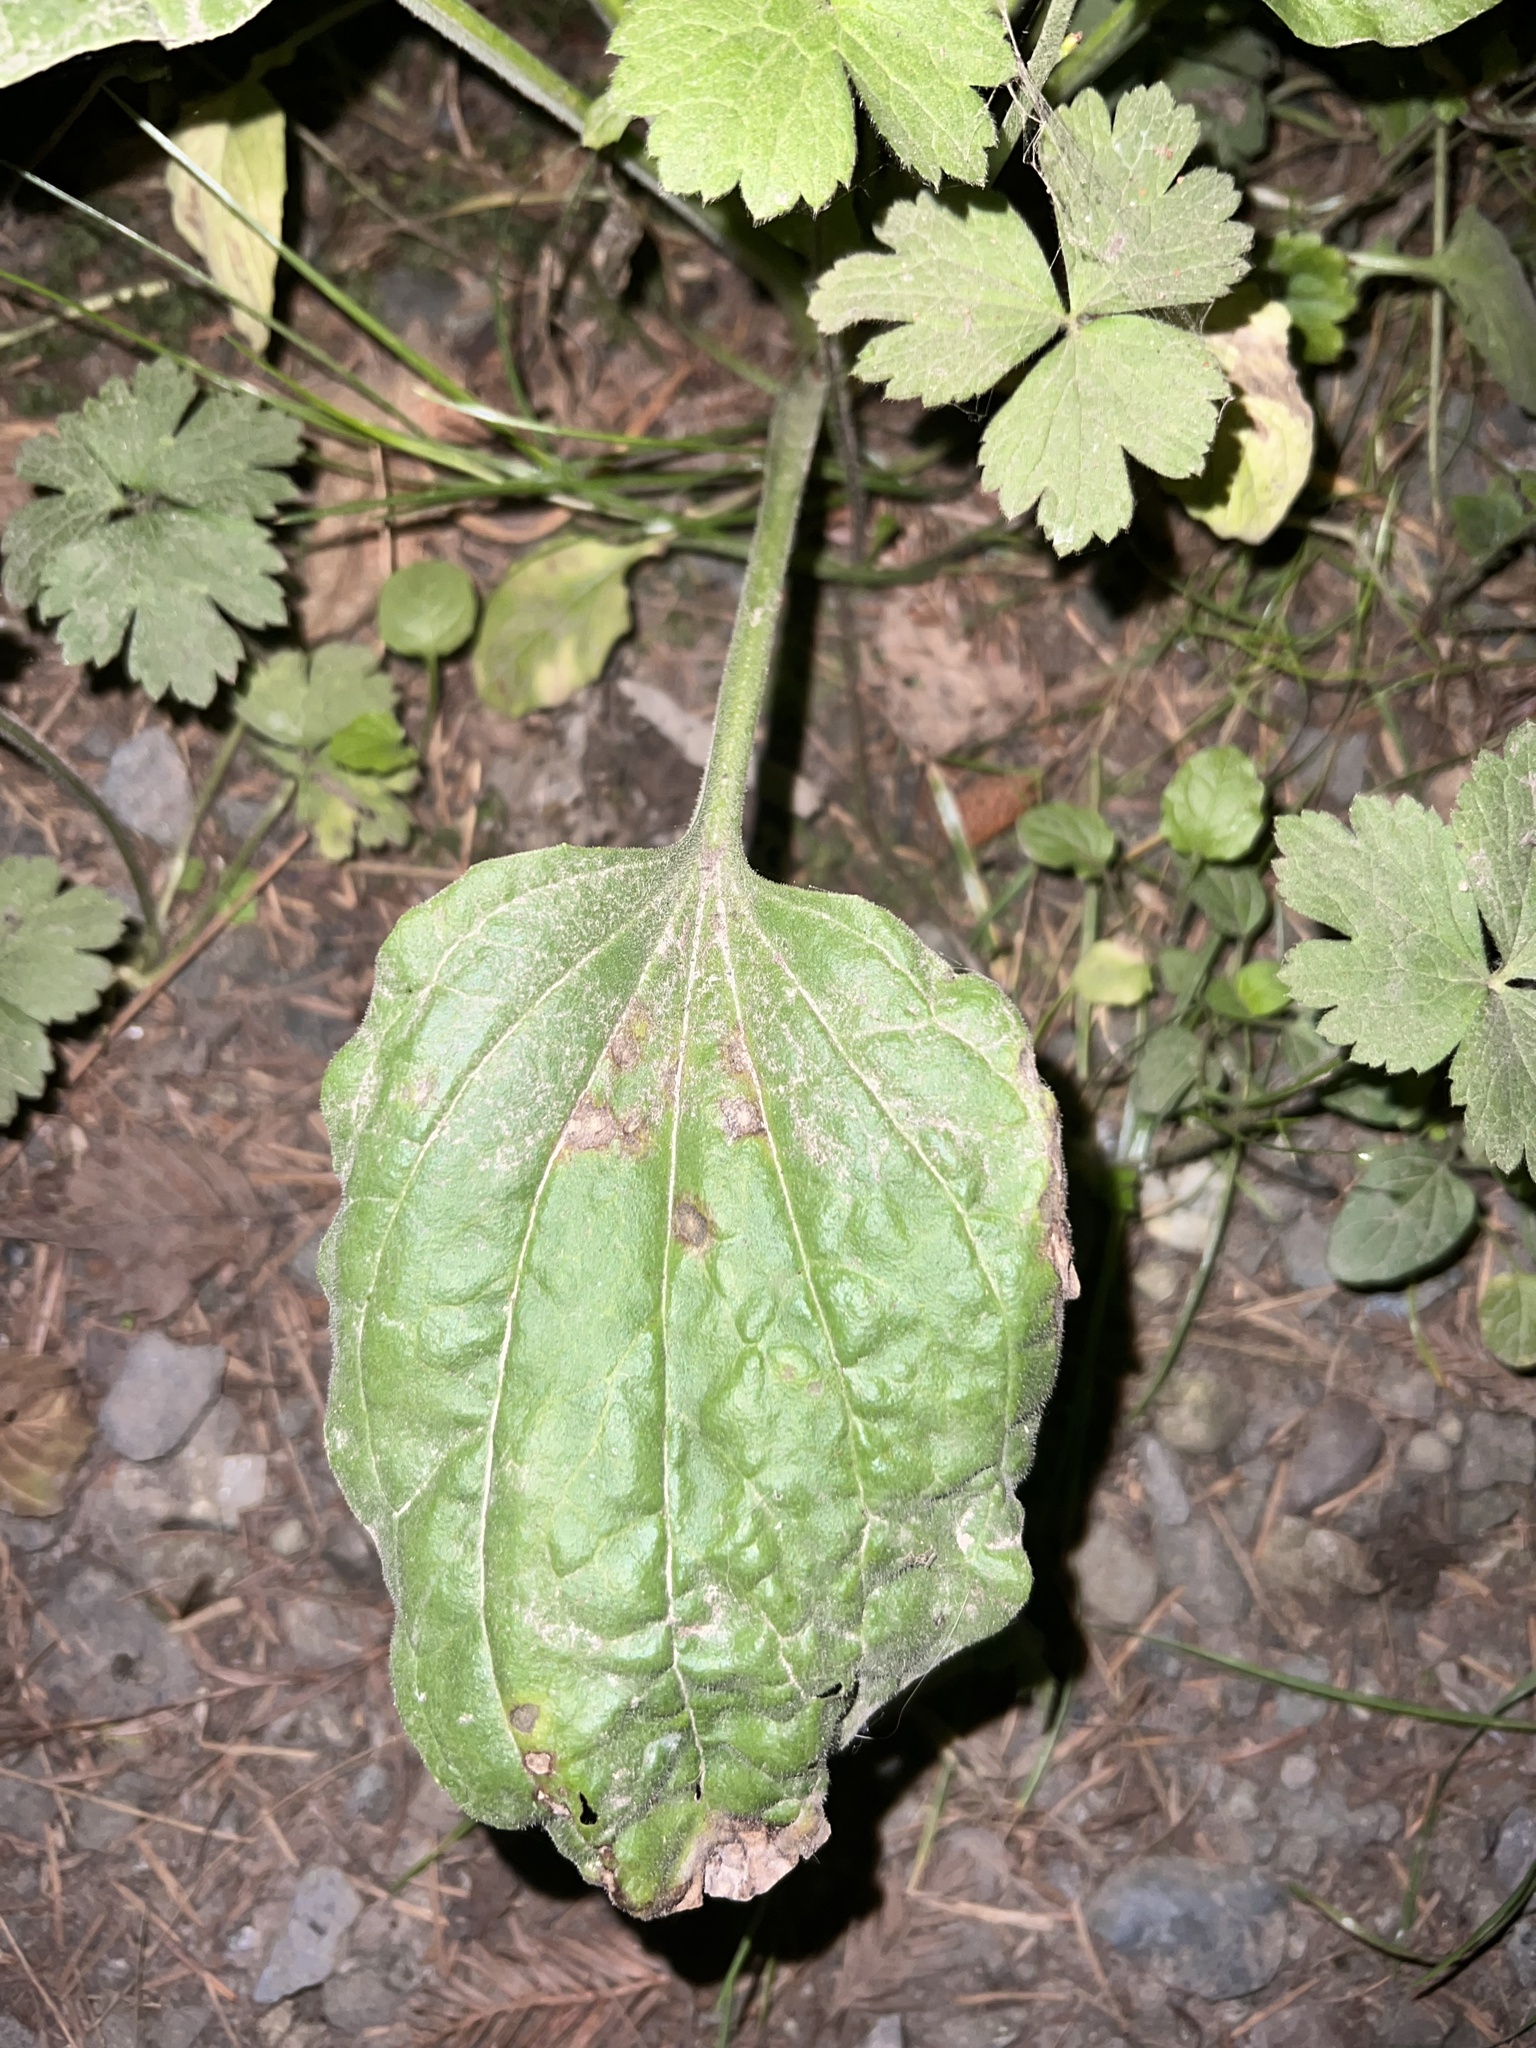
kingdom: Plantae
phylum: Tracheophyta
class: Magnoliopsida
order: Lamiales
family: Plantaginaceae
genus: Plantago
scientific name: Plantago major
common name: Common plantain
